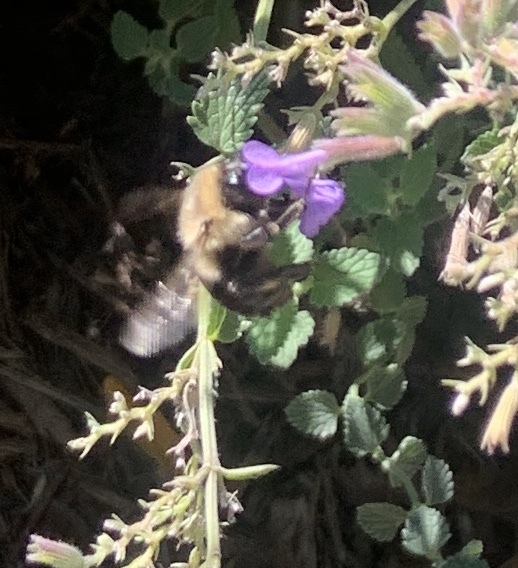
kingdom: Animalia
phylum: Arthropoda
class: Insecta
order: Hymenoptera
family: Apidae
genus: Bombus
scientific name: Bombus impatiens
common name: Common eastern bumble bee
